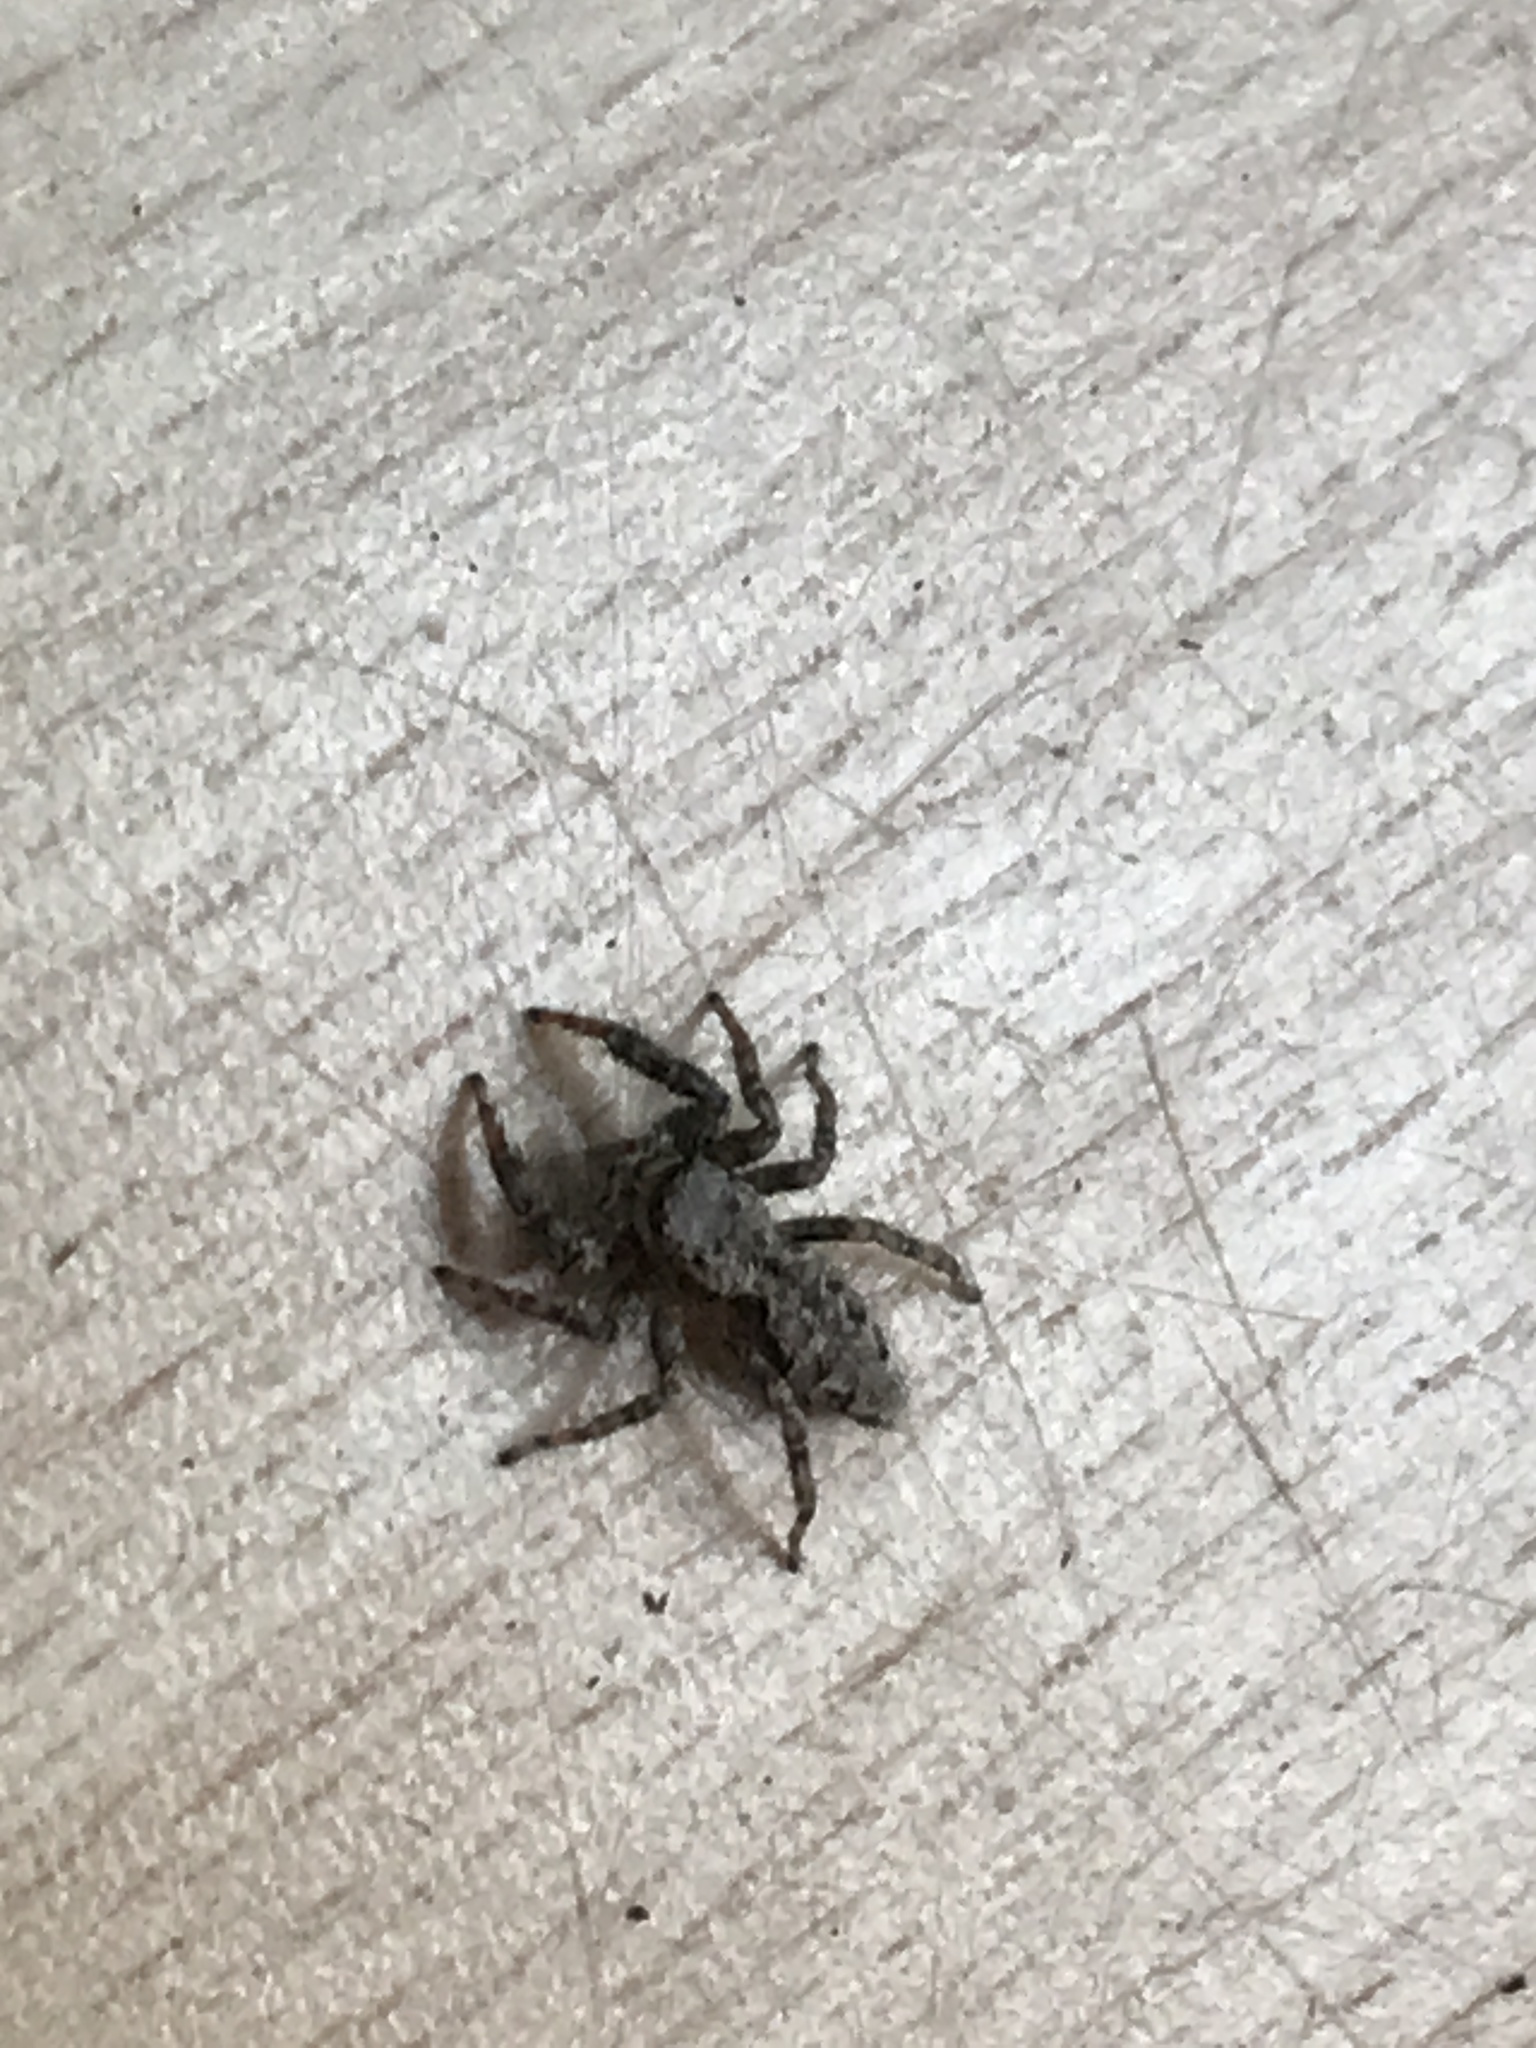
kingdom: Animalia
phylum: Arthropoda
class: Arachnida
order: Araneae
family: Salticidae
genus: Marpissa
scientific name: Marpissa muscosa
